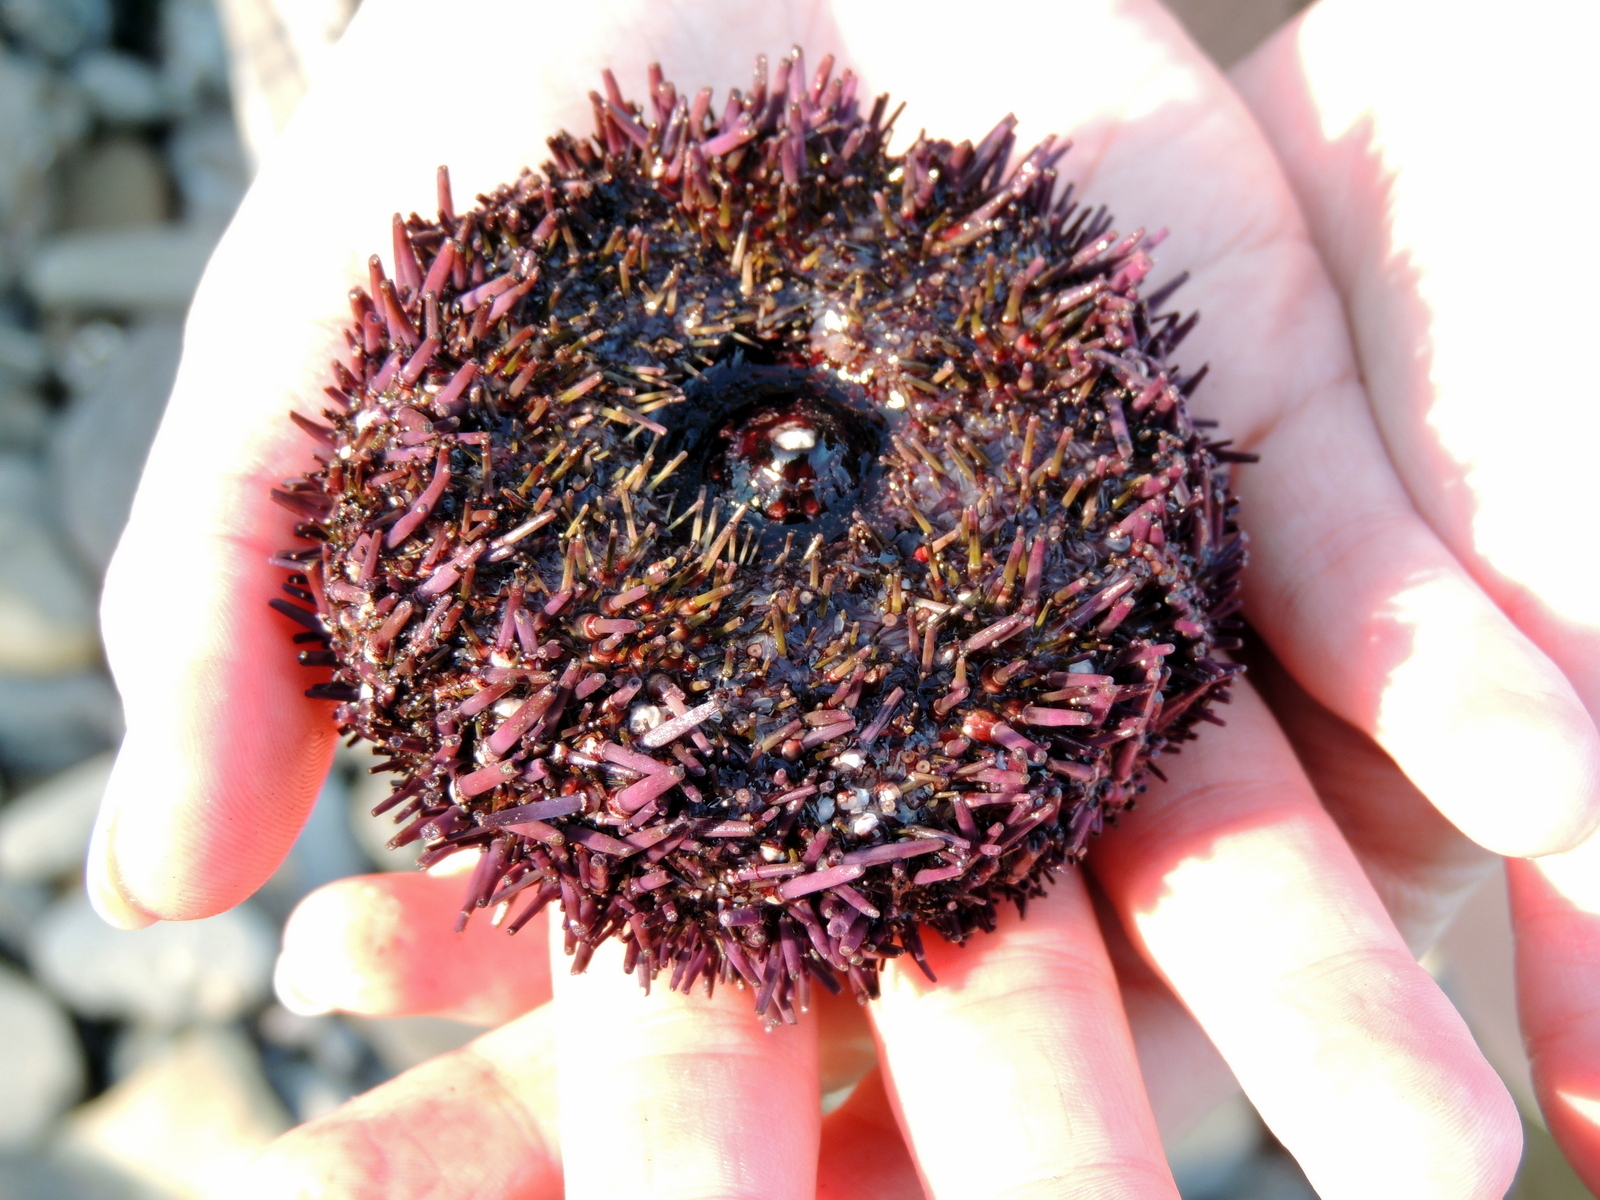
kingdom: Animalia
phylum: Echinodermata
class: Echinoidea
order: Camarodonta
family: Strongylocentrotidae
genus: Strongylocentrotus
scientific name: Strongylocentrotus purpuratus
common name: Purple sea urchin
